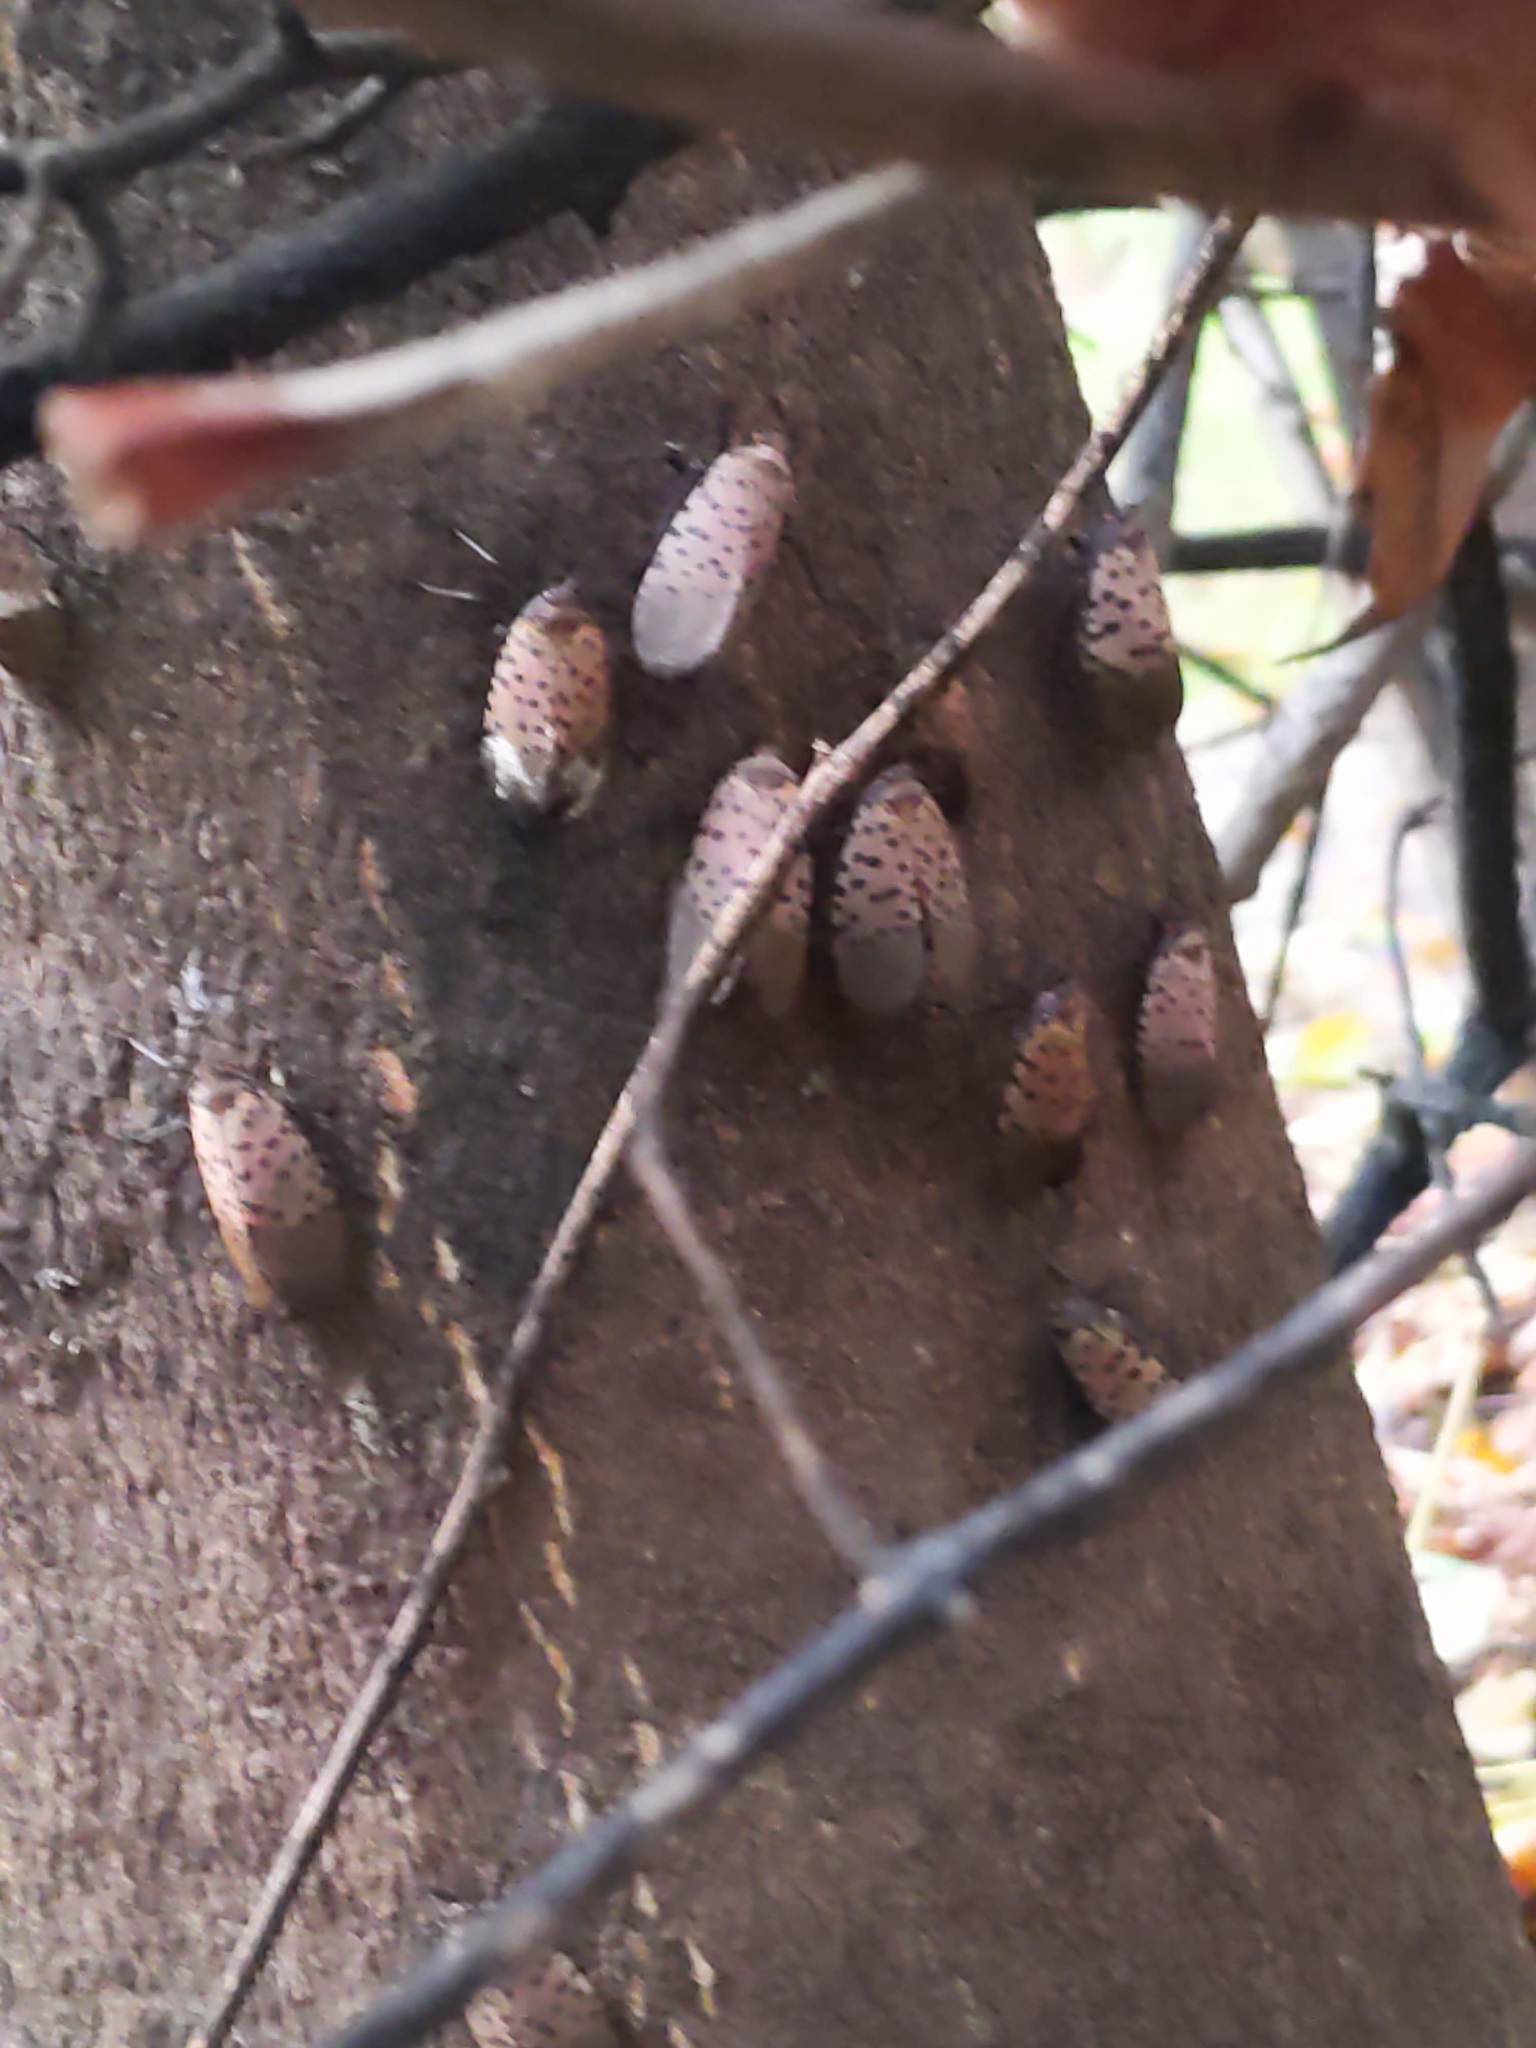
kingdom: Animalia
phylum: Arthropoda
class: Insecta
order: Hemiptera
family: Fulgoridae
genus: Lycorma
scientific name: Lycorma delicatula
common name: Spotted lanternfly
